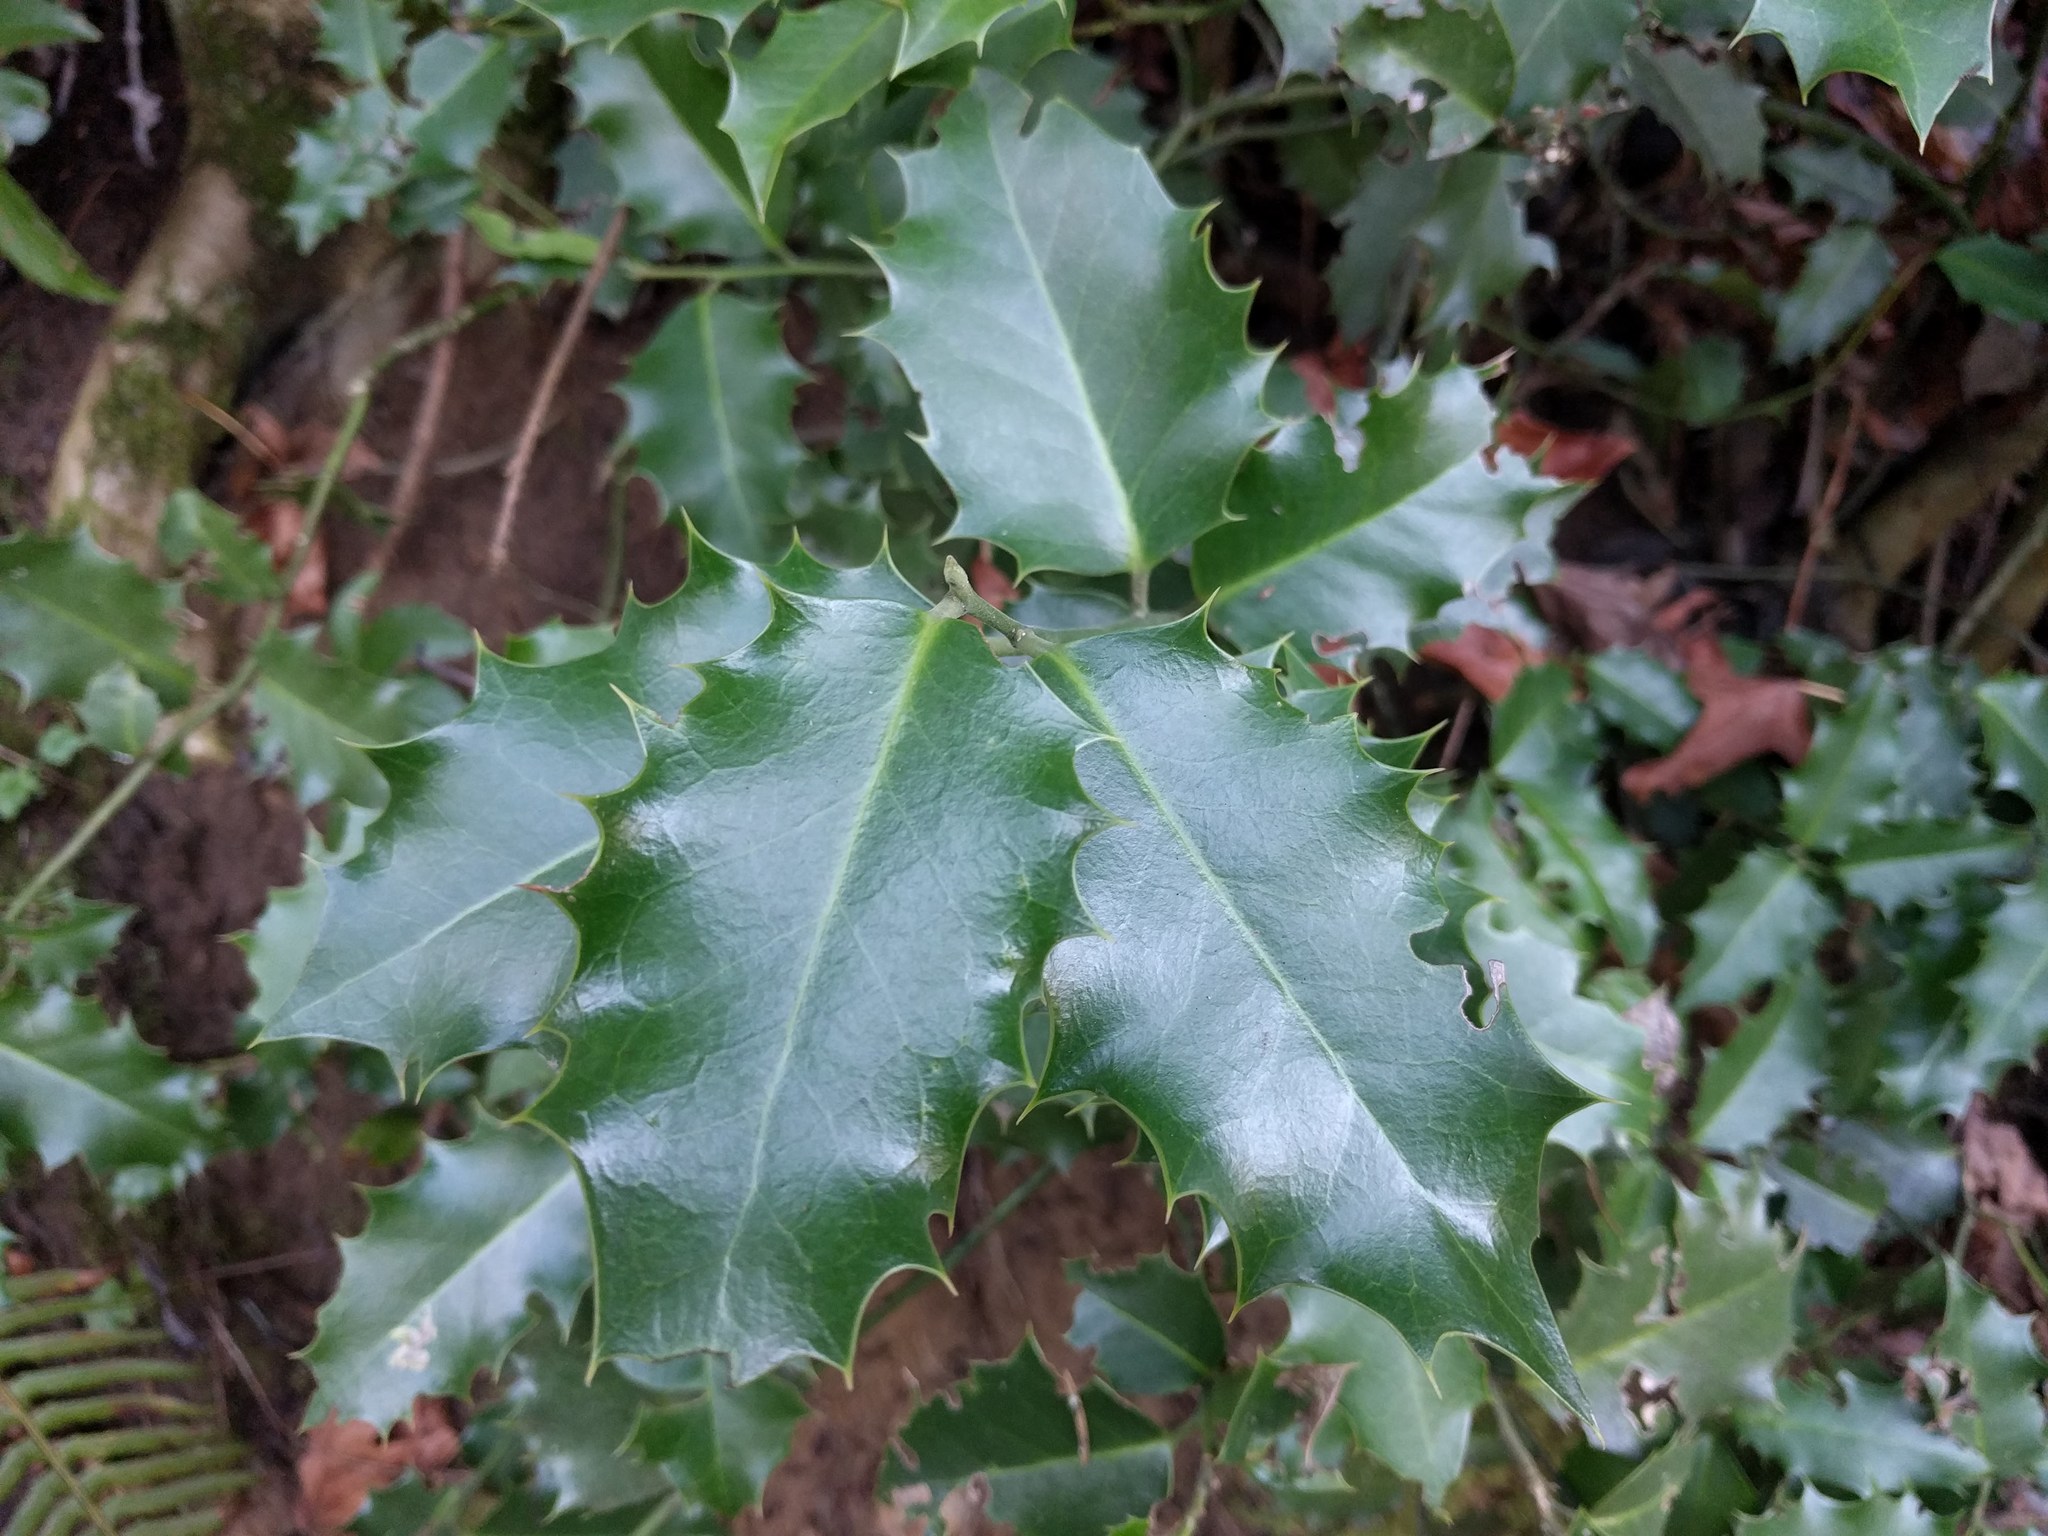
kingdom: Plantae
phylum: Tracheophyta
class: Magnoliopsida
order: Aquifoliales
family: Aquifoliaceae
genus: Ilex
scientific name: Ilex aquifolium
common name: English holly
